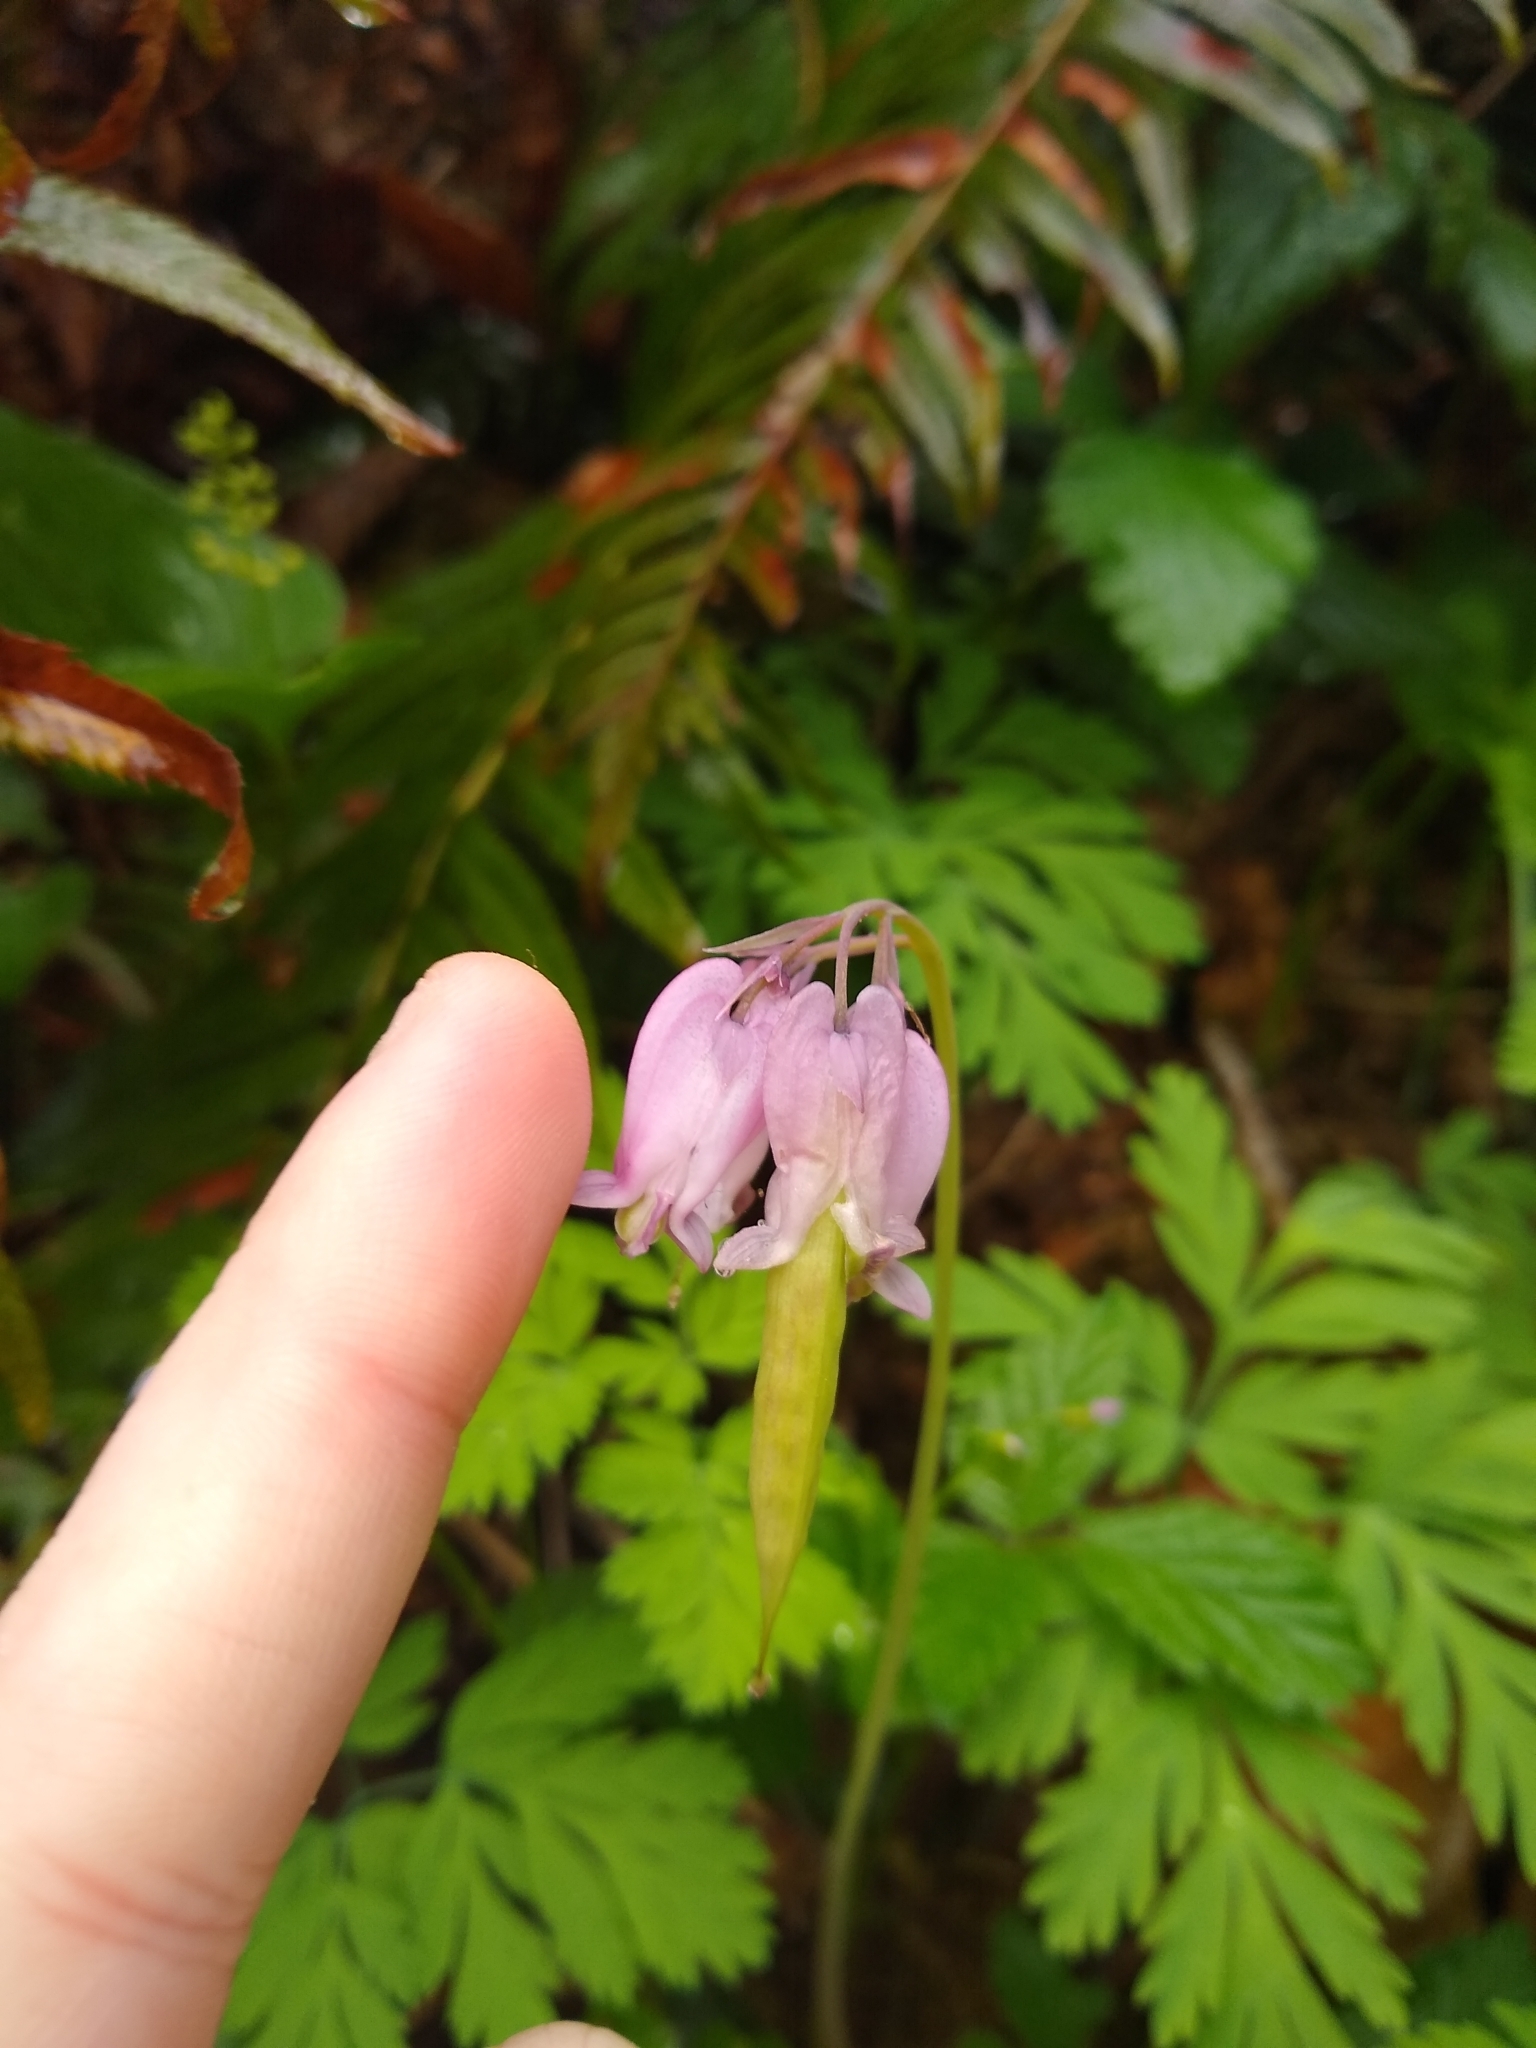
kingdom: Plantae
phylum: Tracheophyta
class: Magnoliopsida
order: Ranunculales
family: Papaveraceae
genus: Dicentra
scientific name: Dicentra formosa
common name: Bleeding-heart
